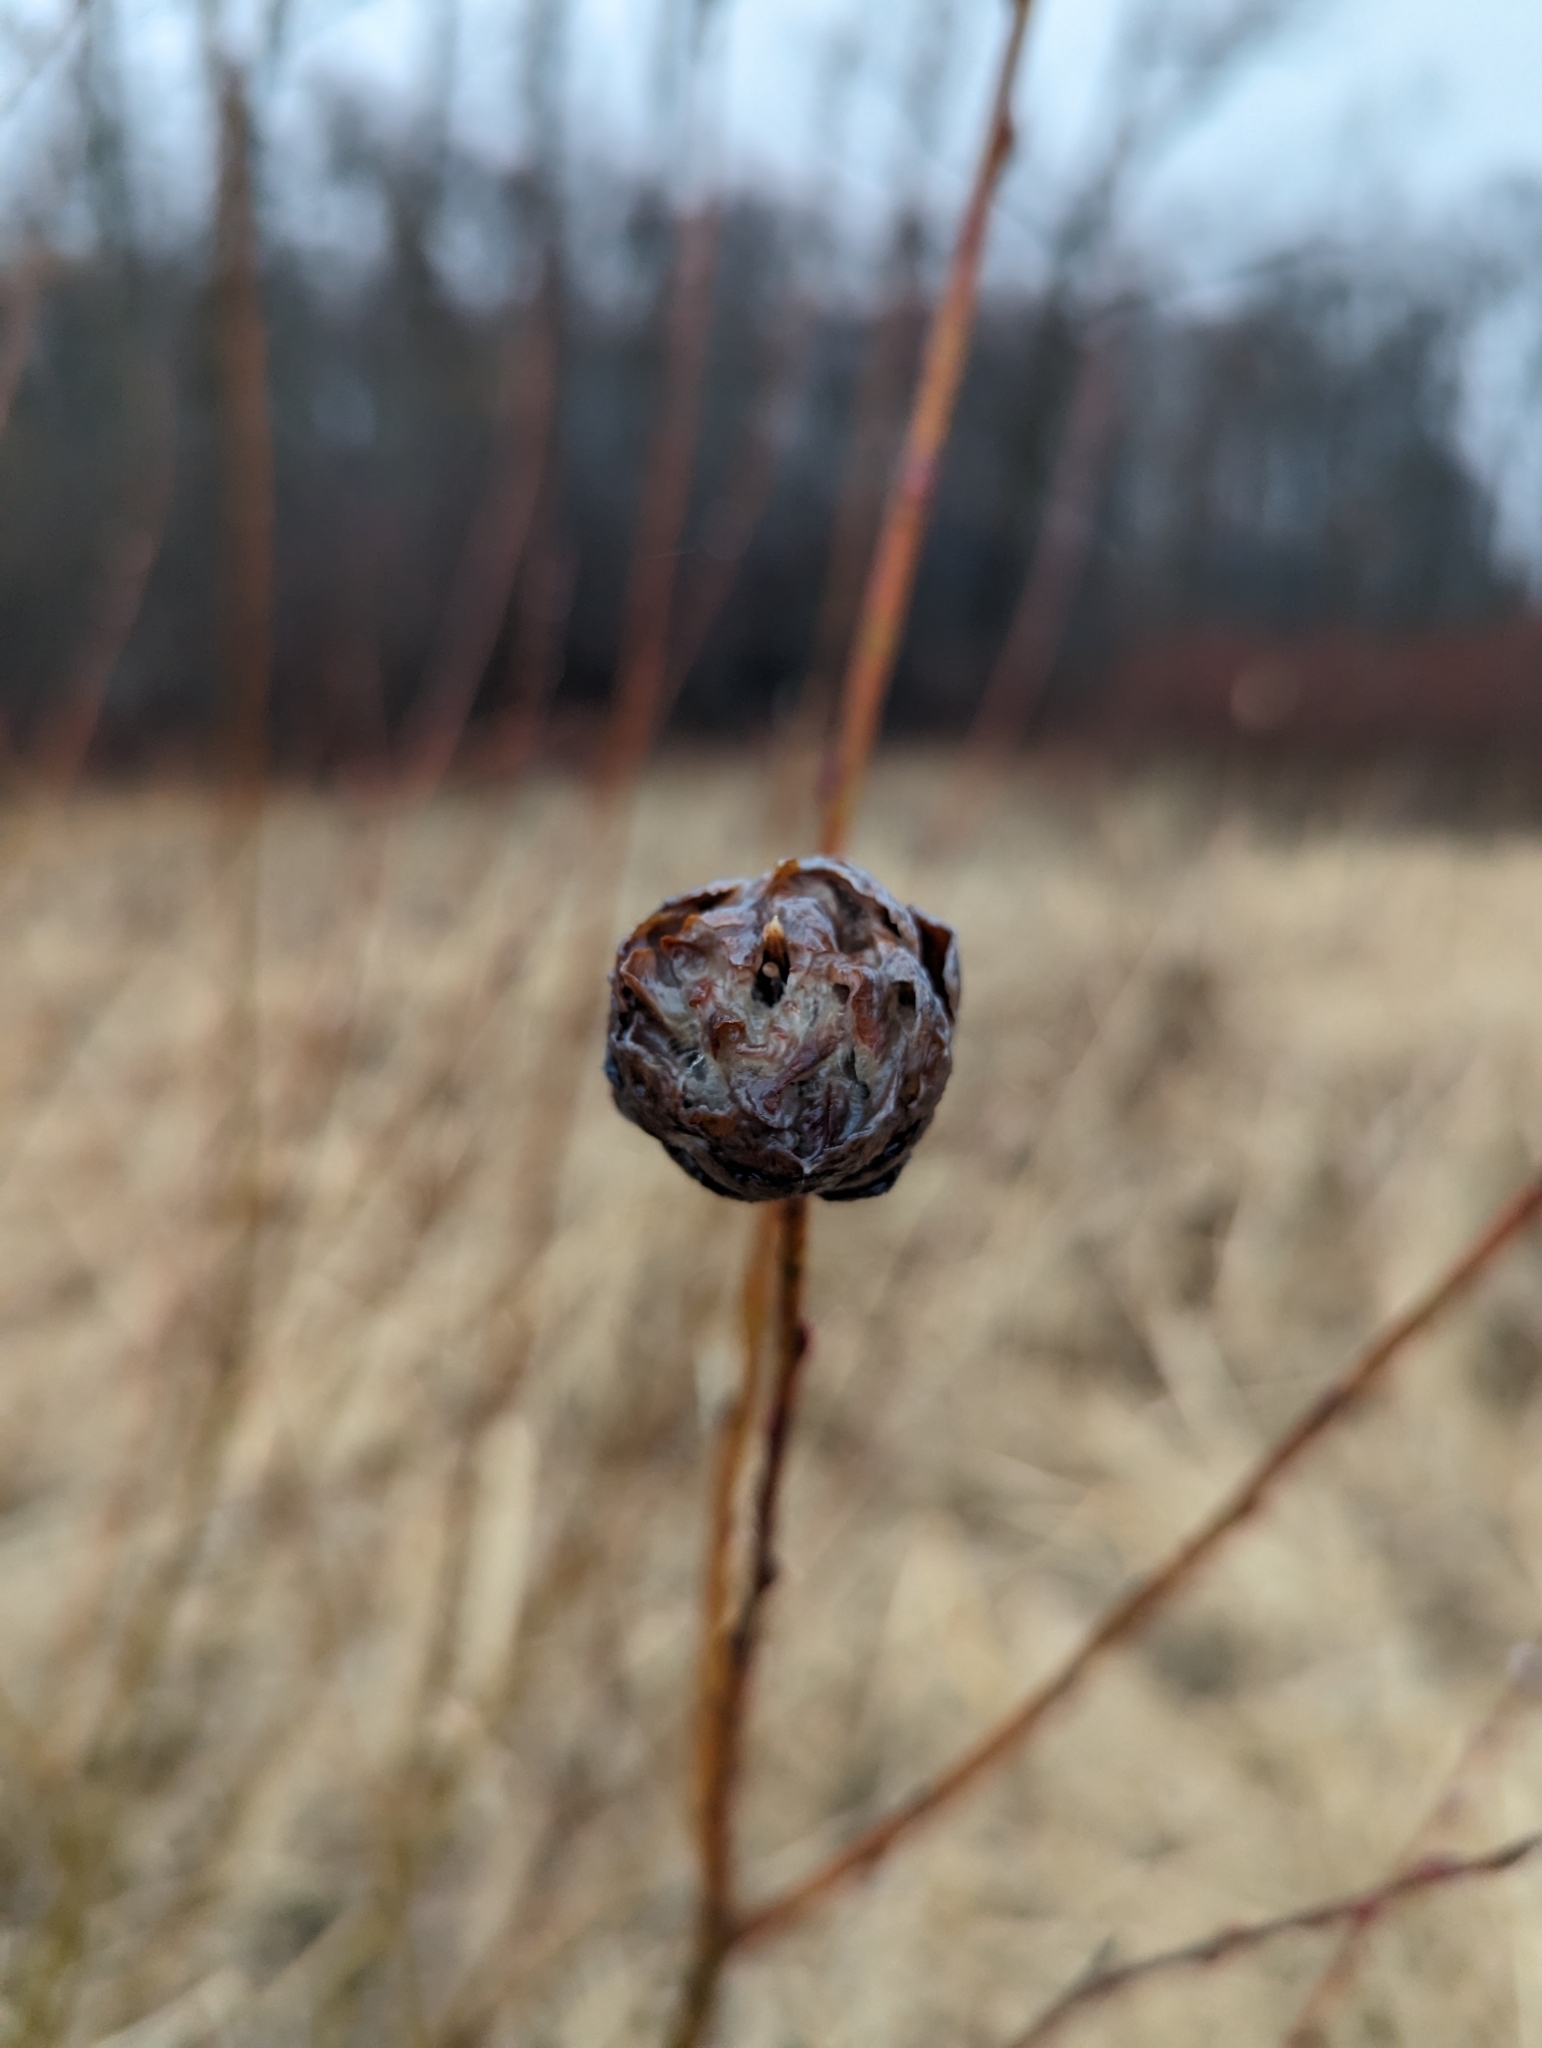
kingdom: Animalia
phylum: Arthropoda
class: Insecta
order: Diptera
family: Cecidomyiidae
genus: Rabdophaga
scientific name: Rabdophaga strobiloides
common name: Willow pinecone gall midge
